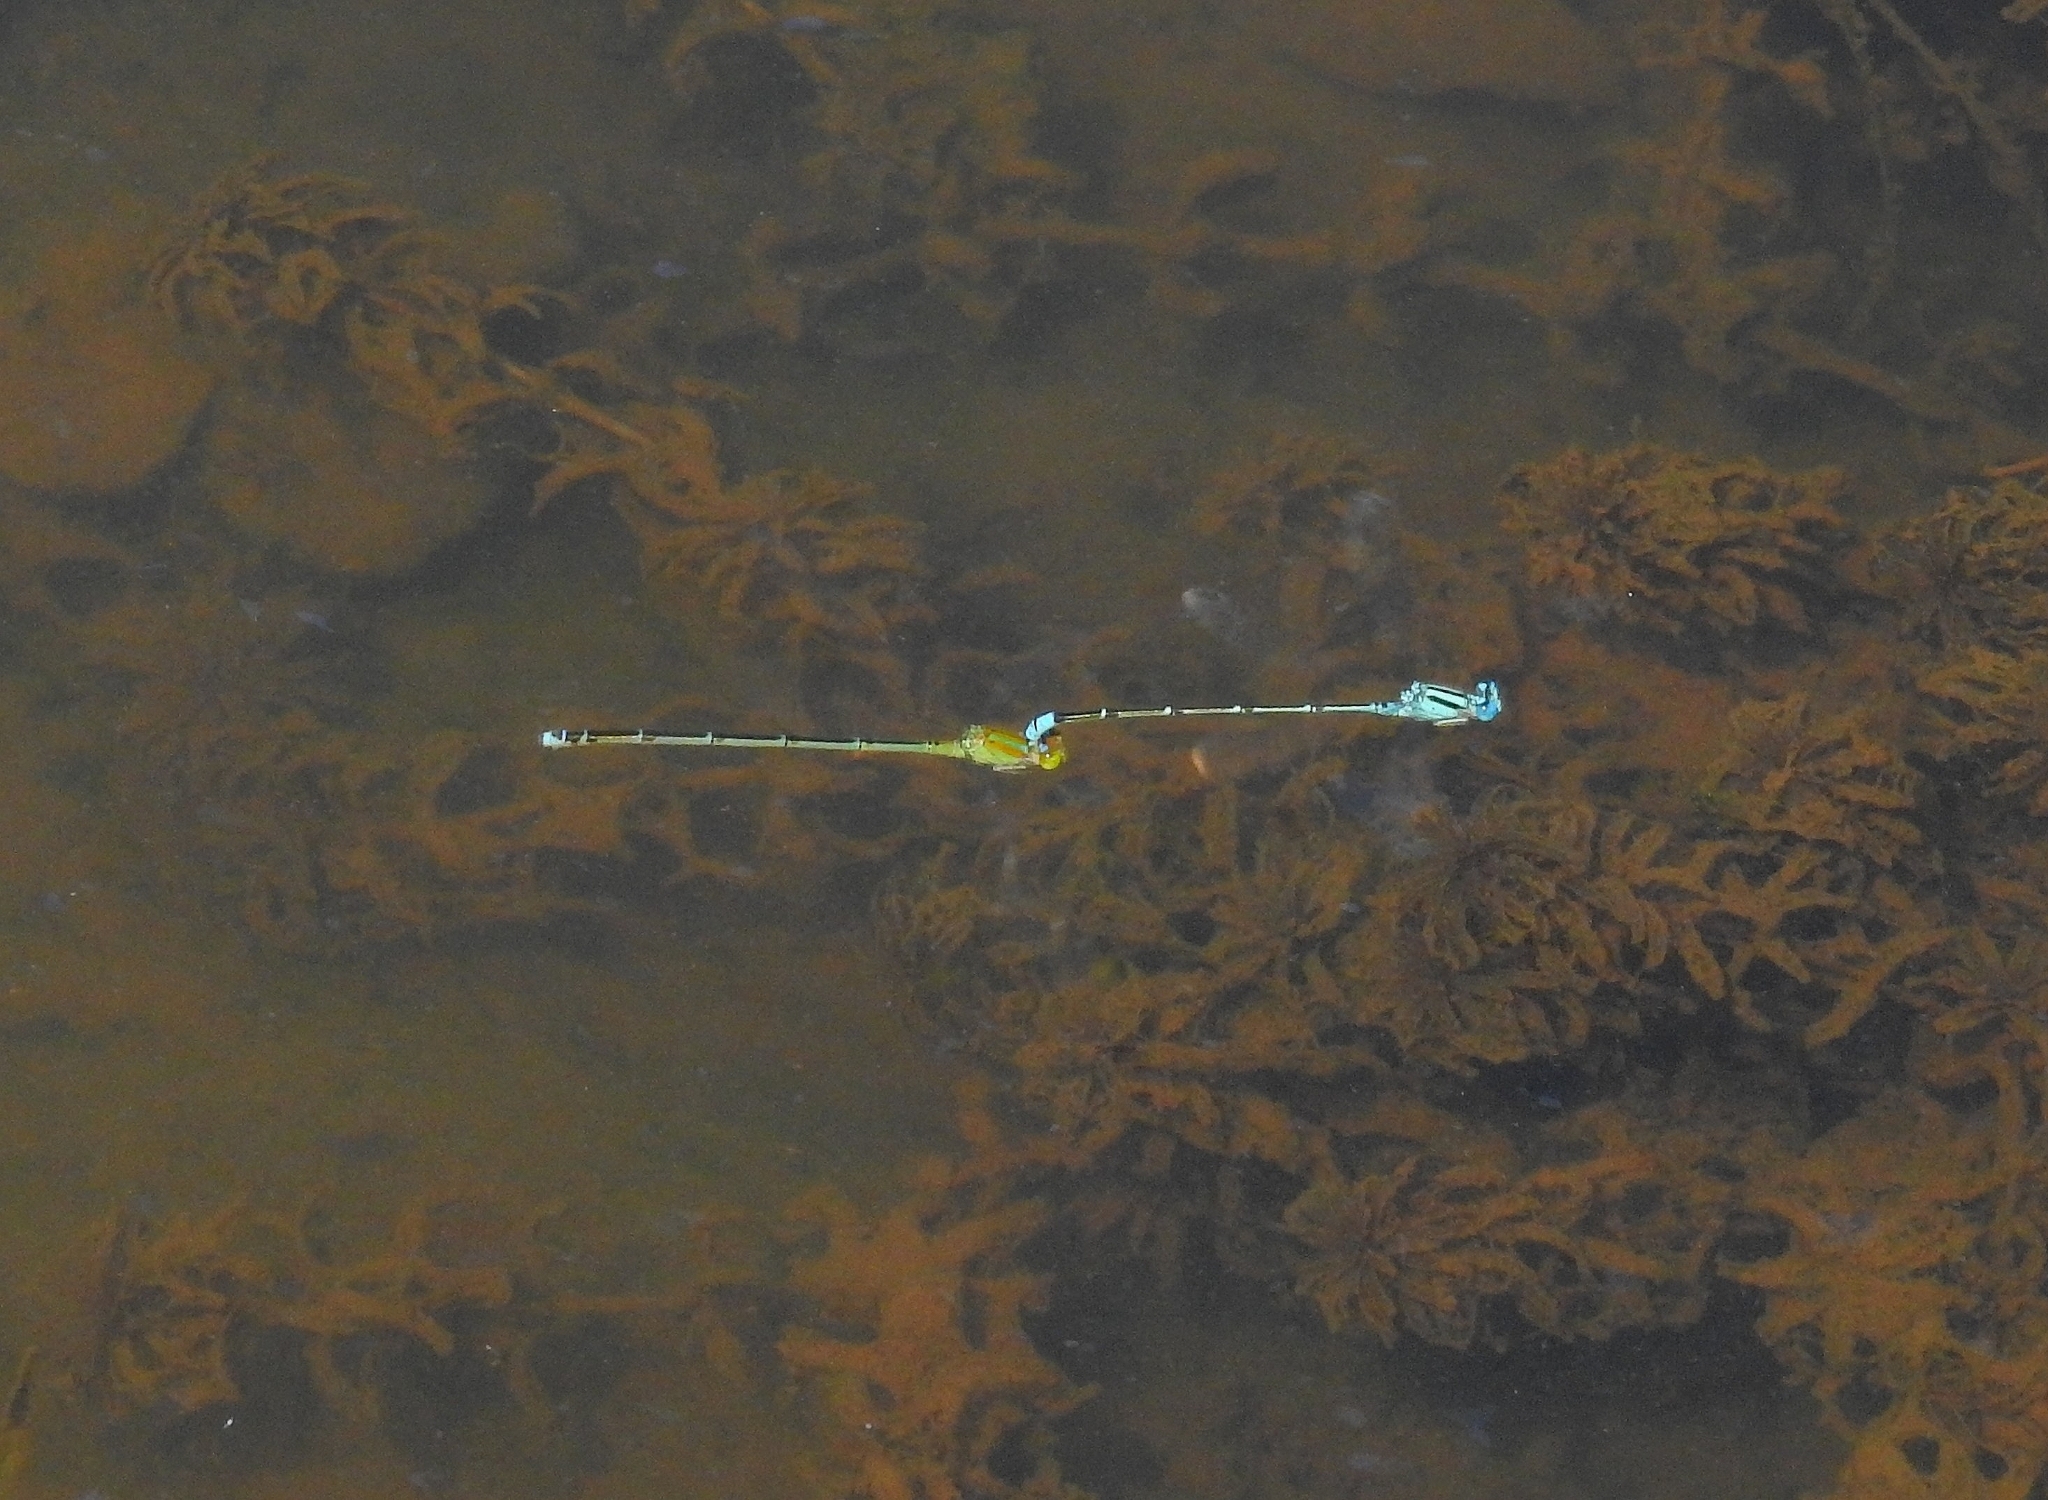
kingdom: Animalia
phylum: Arthropoda
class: Insecta
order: Odonata
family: Coenagrionidae
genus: Pseudagrion
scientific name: Pseudagrion microcephalum
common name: Blue riverdamsel
